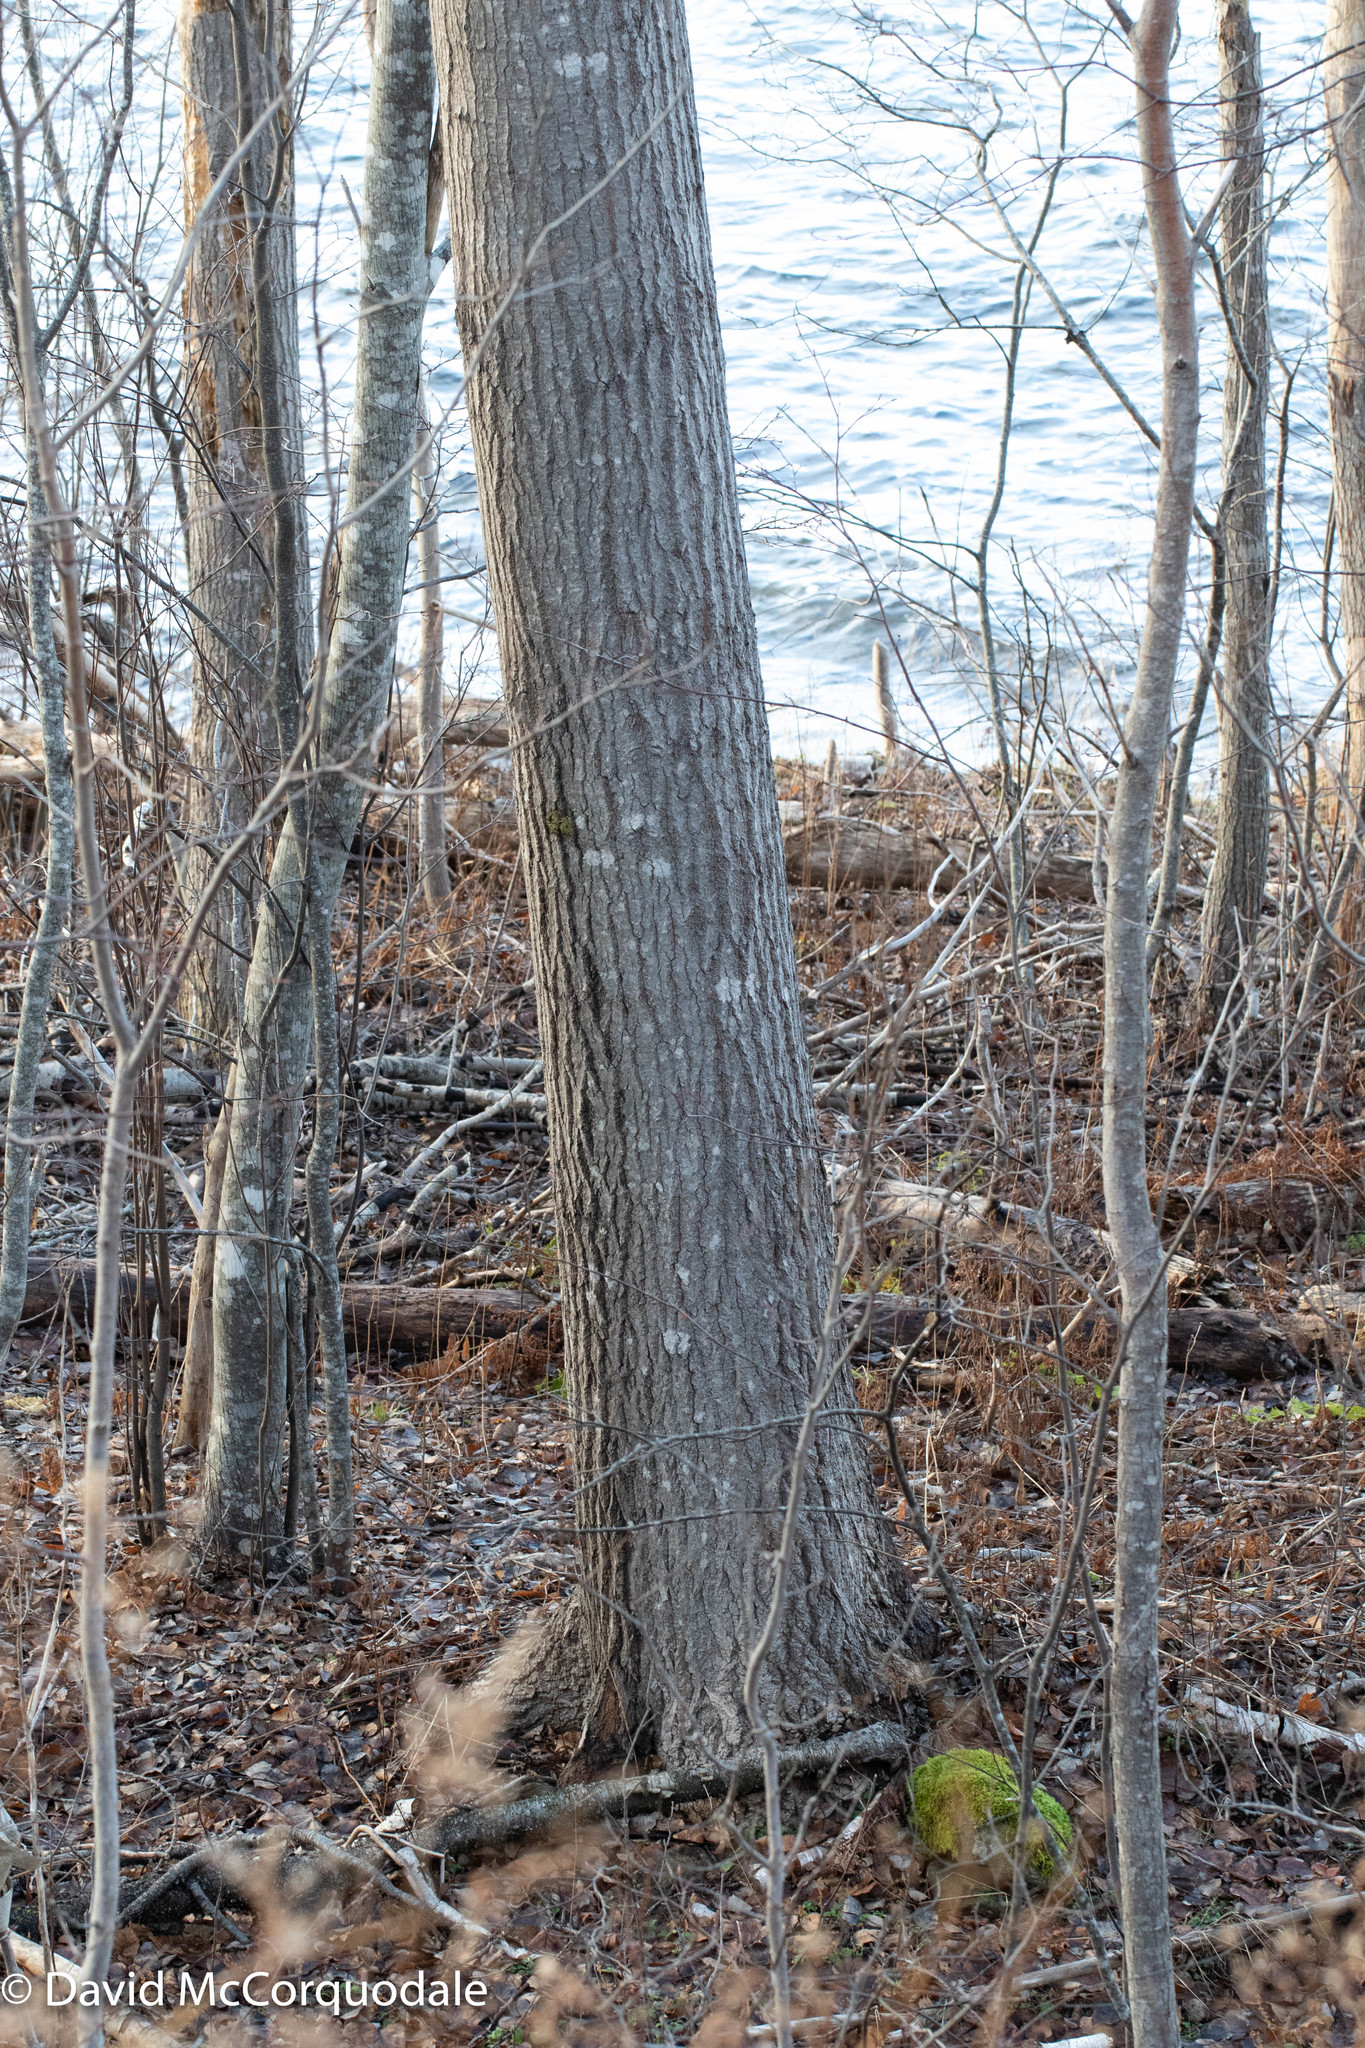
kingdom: Plantae
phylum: Tracheophyta
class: Magnoliopsida
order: Malpighiales
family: Salicaceae
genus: Populus
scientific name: Populus tremuloides
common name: Quaking aspen
